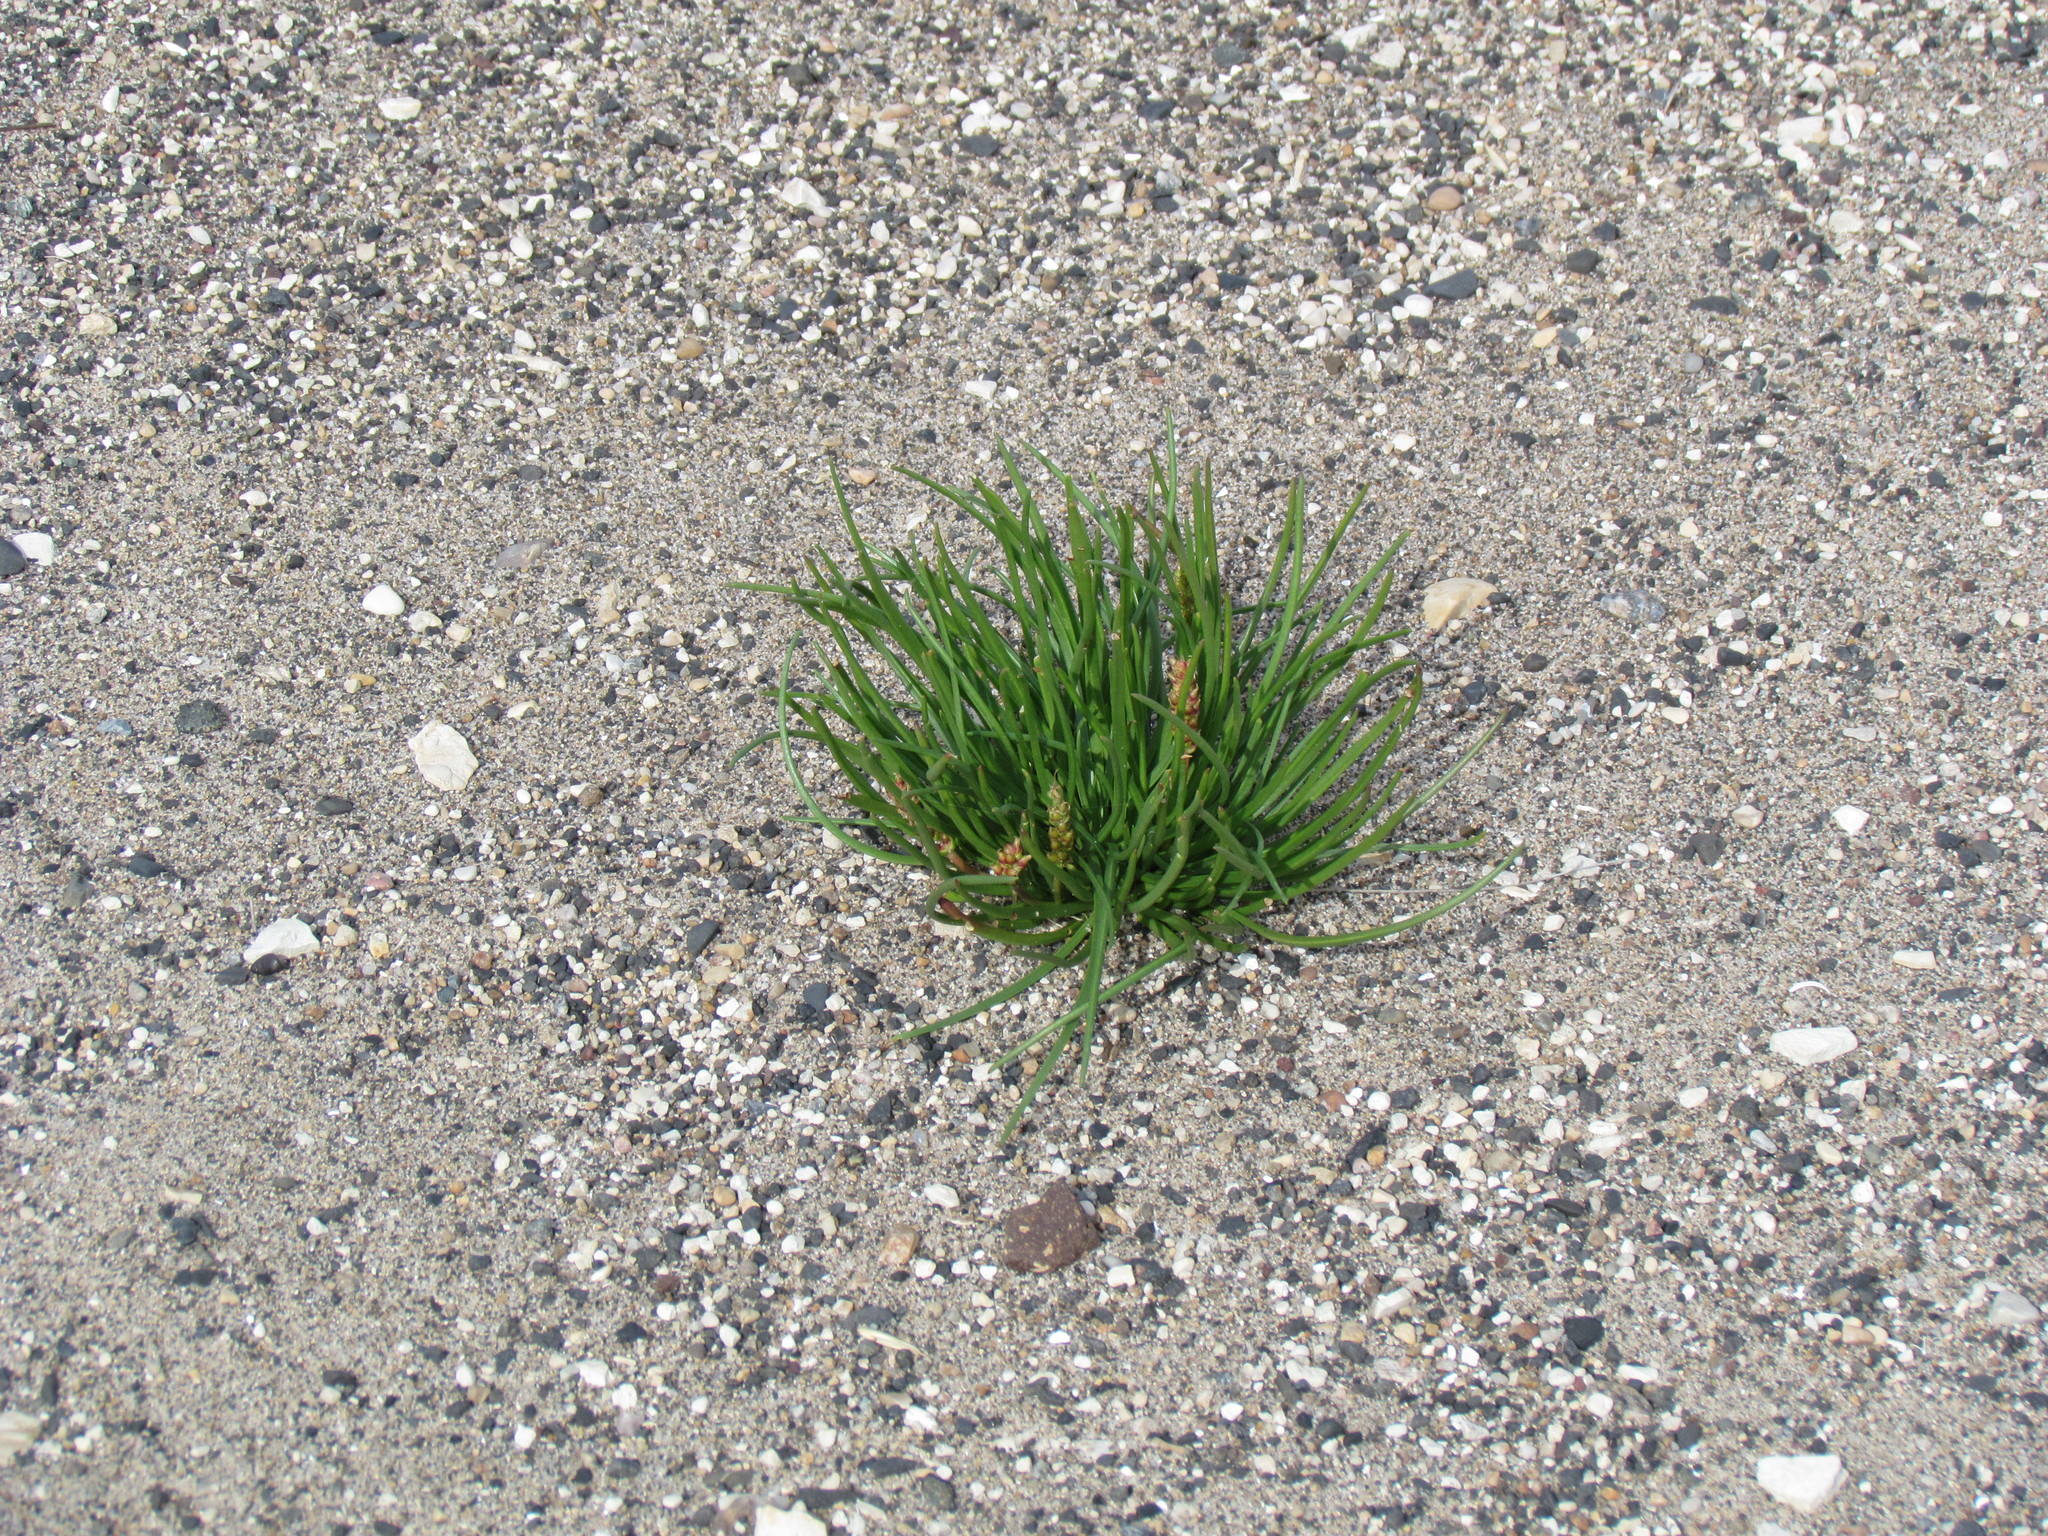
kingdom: Plantae
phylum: Tracheophyta
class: Magnoliopsida
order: Lamiales
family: Plantaginaceae
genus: Plantago
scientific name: Plantago maritima
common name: Sea plantain
